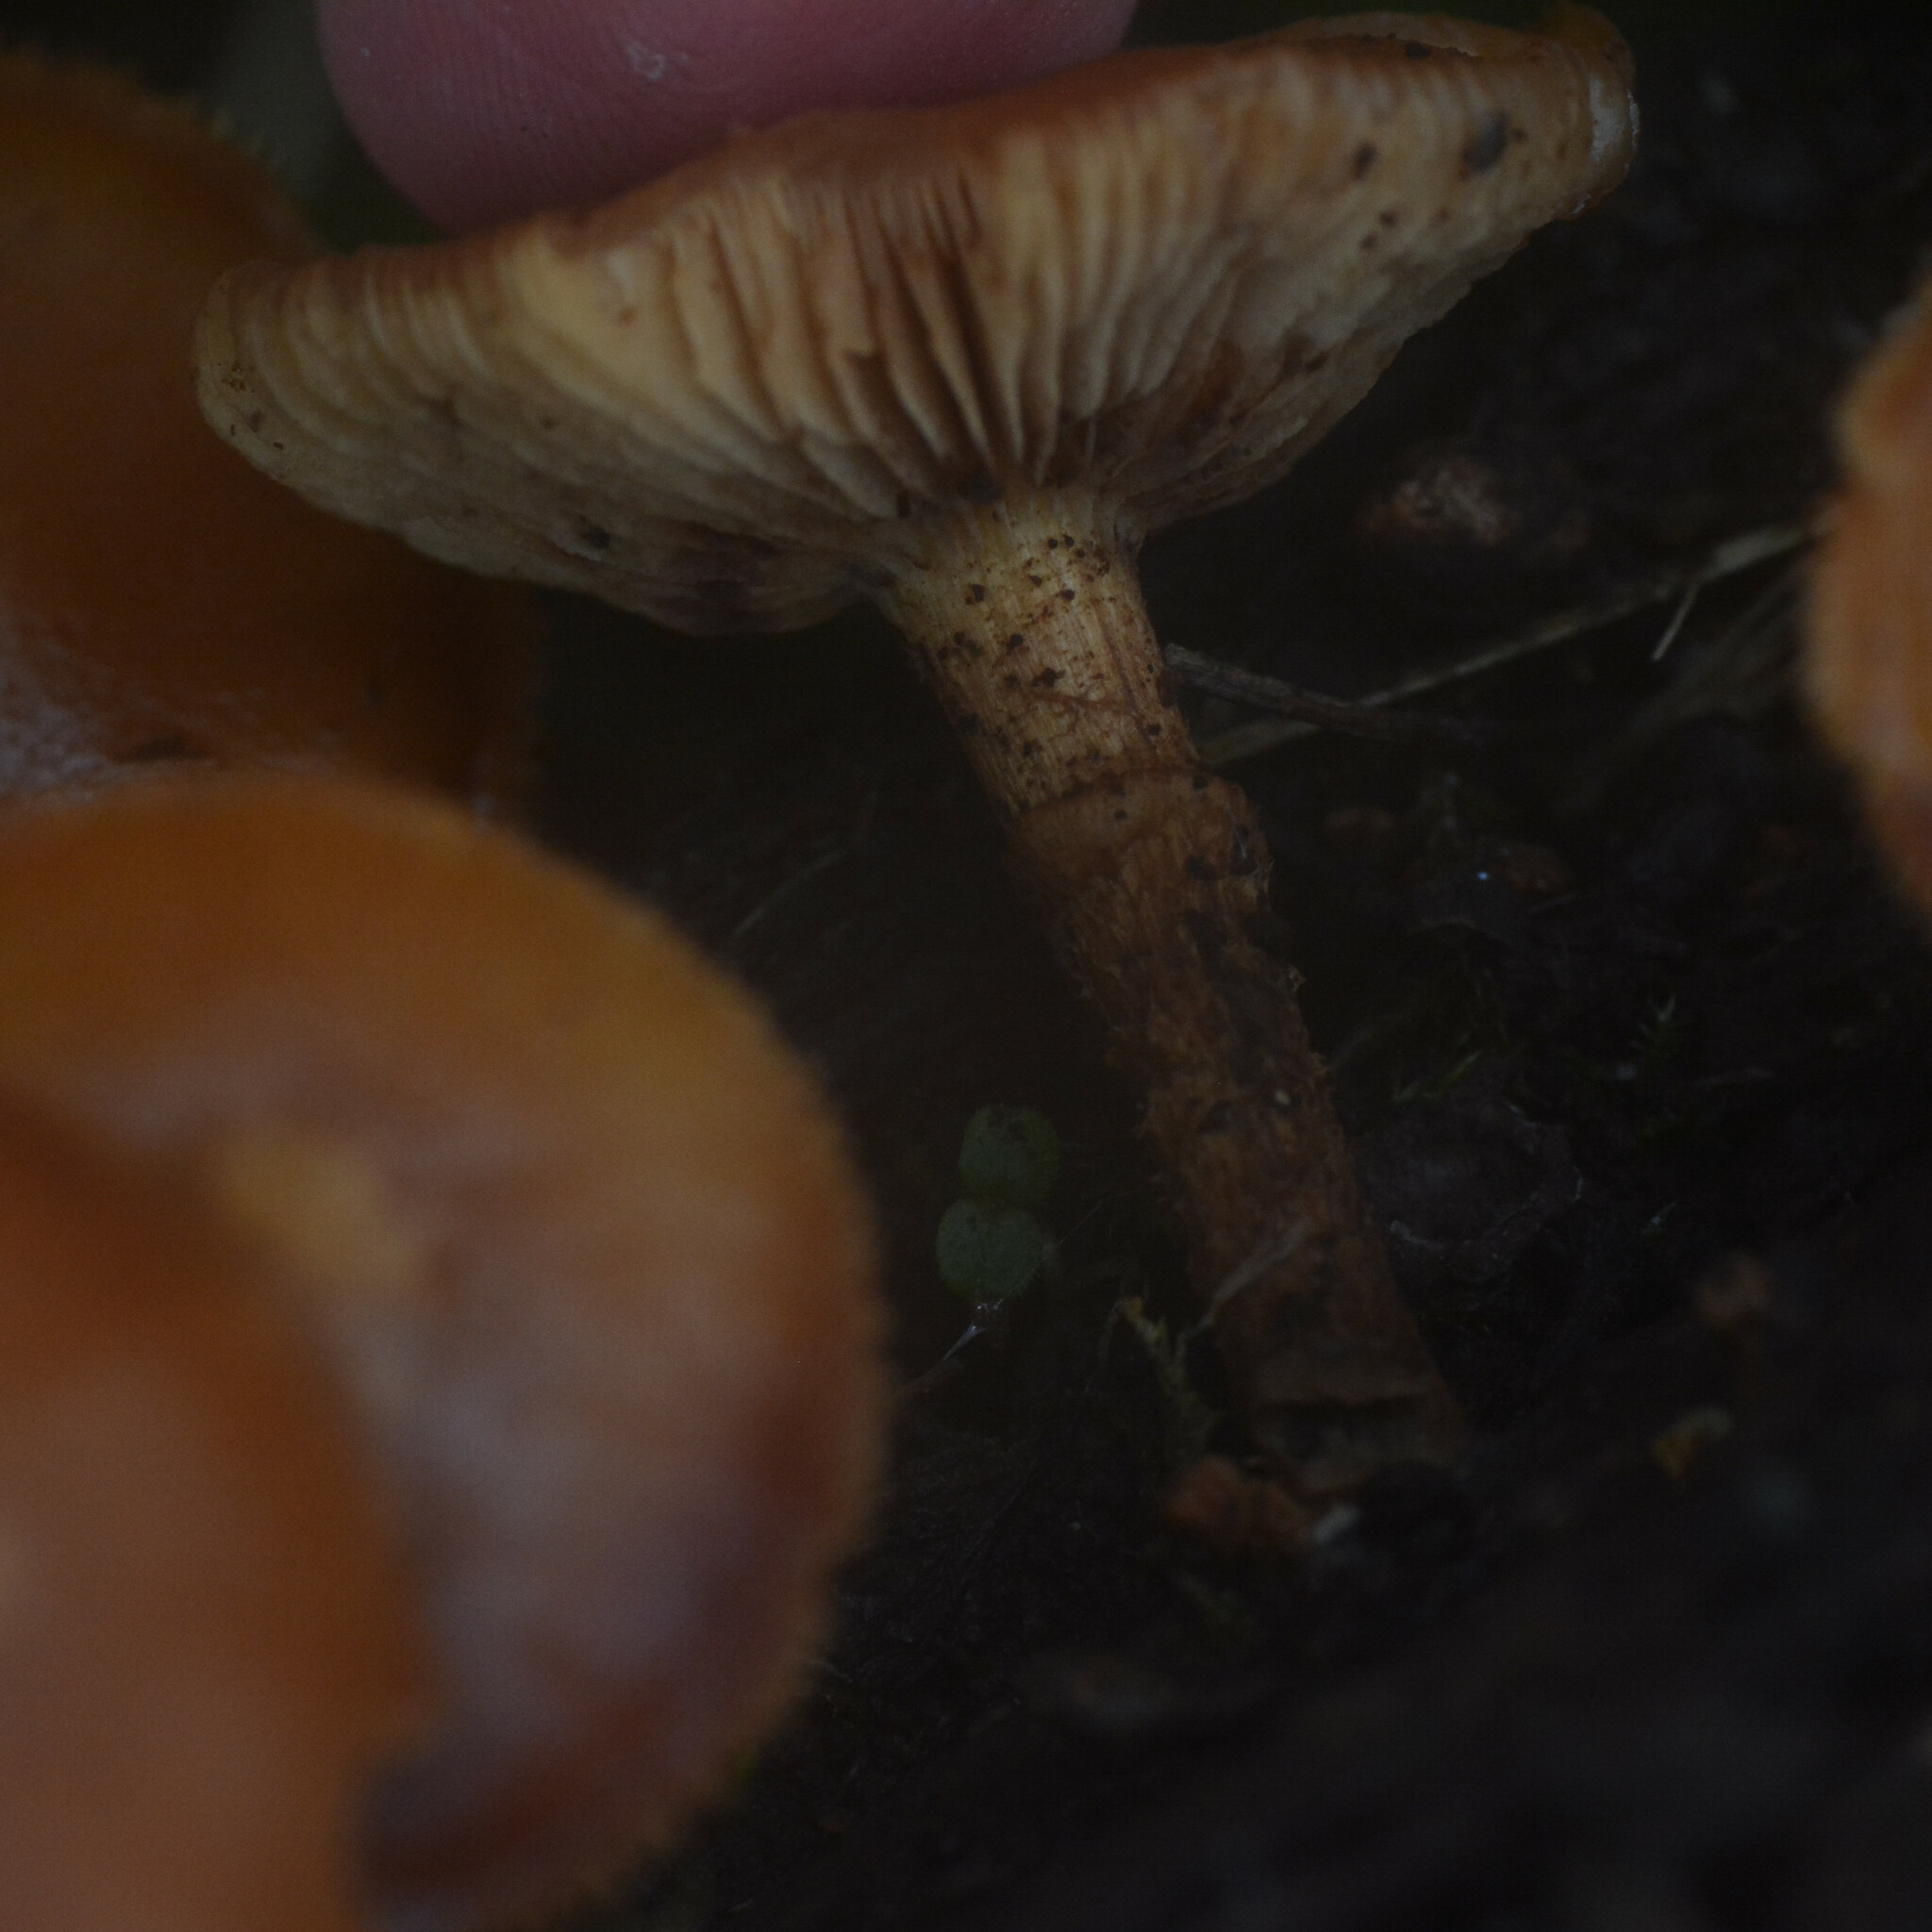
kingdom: Fungi
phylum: Basidiomycota
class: Agaricomycetes
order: Agaricales
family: Strophariaceae
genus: Kuehneromyces
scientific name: Kuehneromyces mutabilis
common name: Sheathed woodtuft
